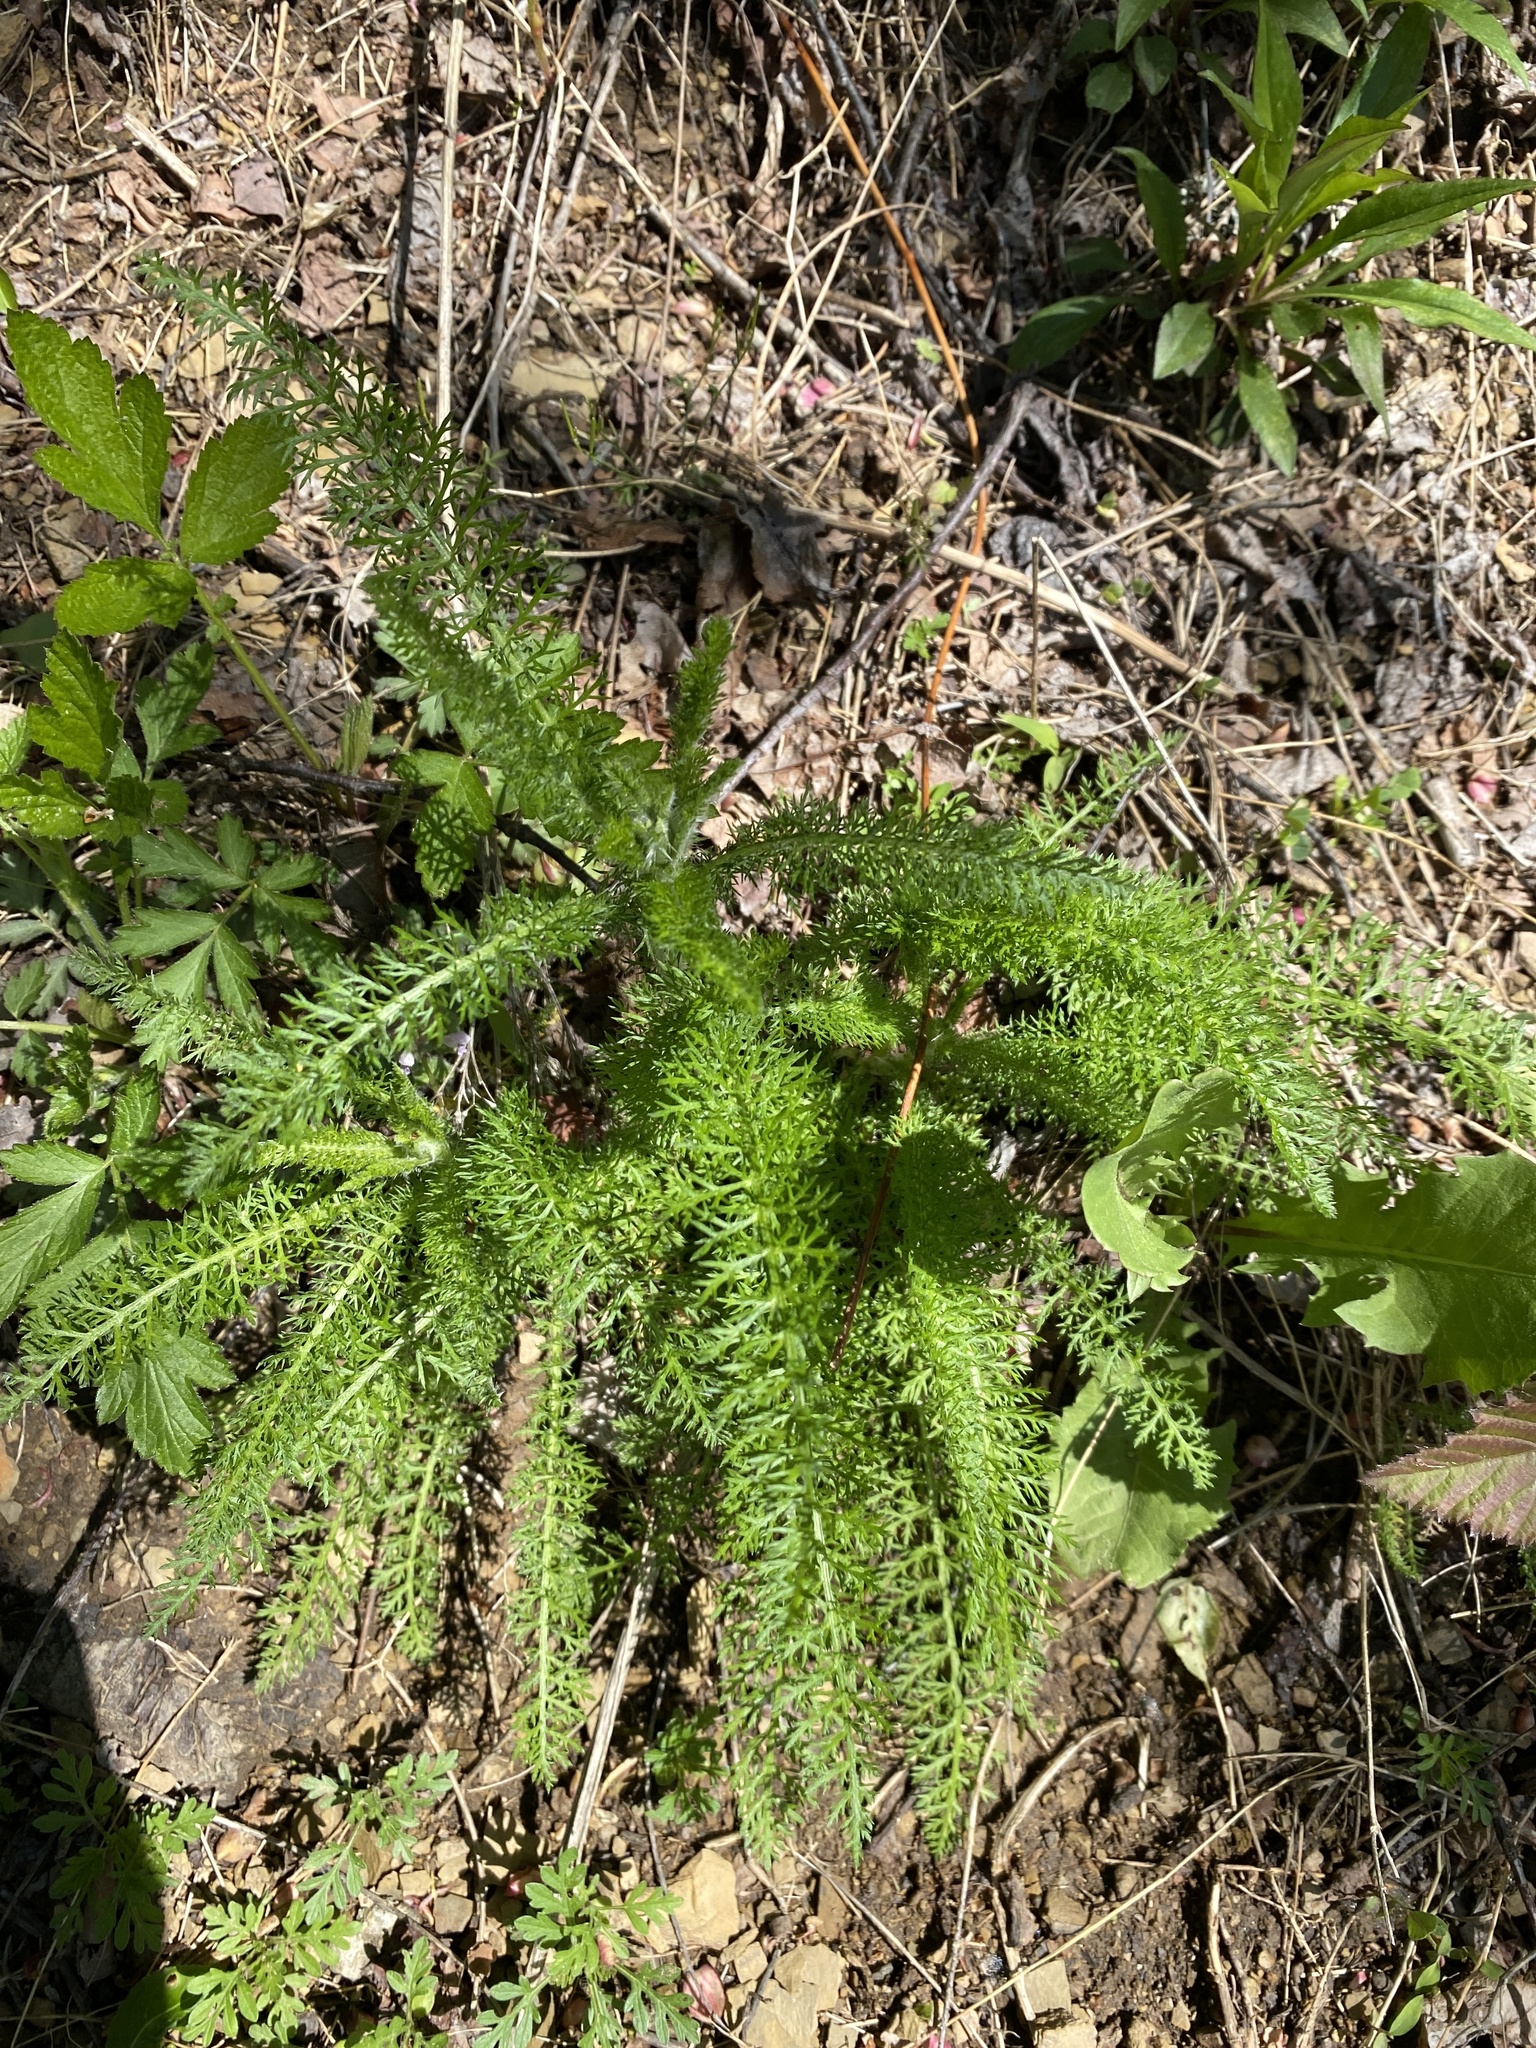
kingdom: Plantae
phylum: Tracheophyta
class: Magnoliopsida
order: Asterales
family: Asteraceae
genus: Achillea
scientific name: Achillea millefolium
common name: Yarrow
